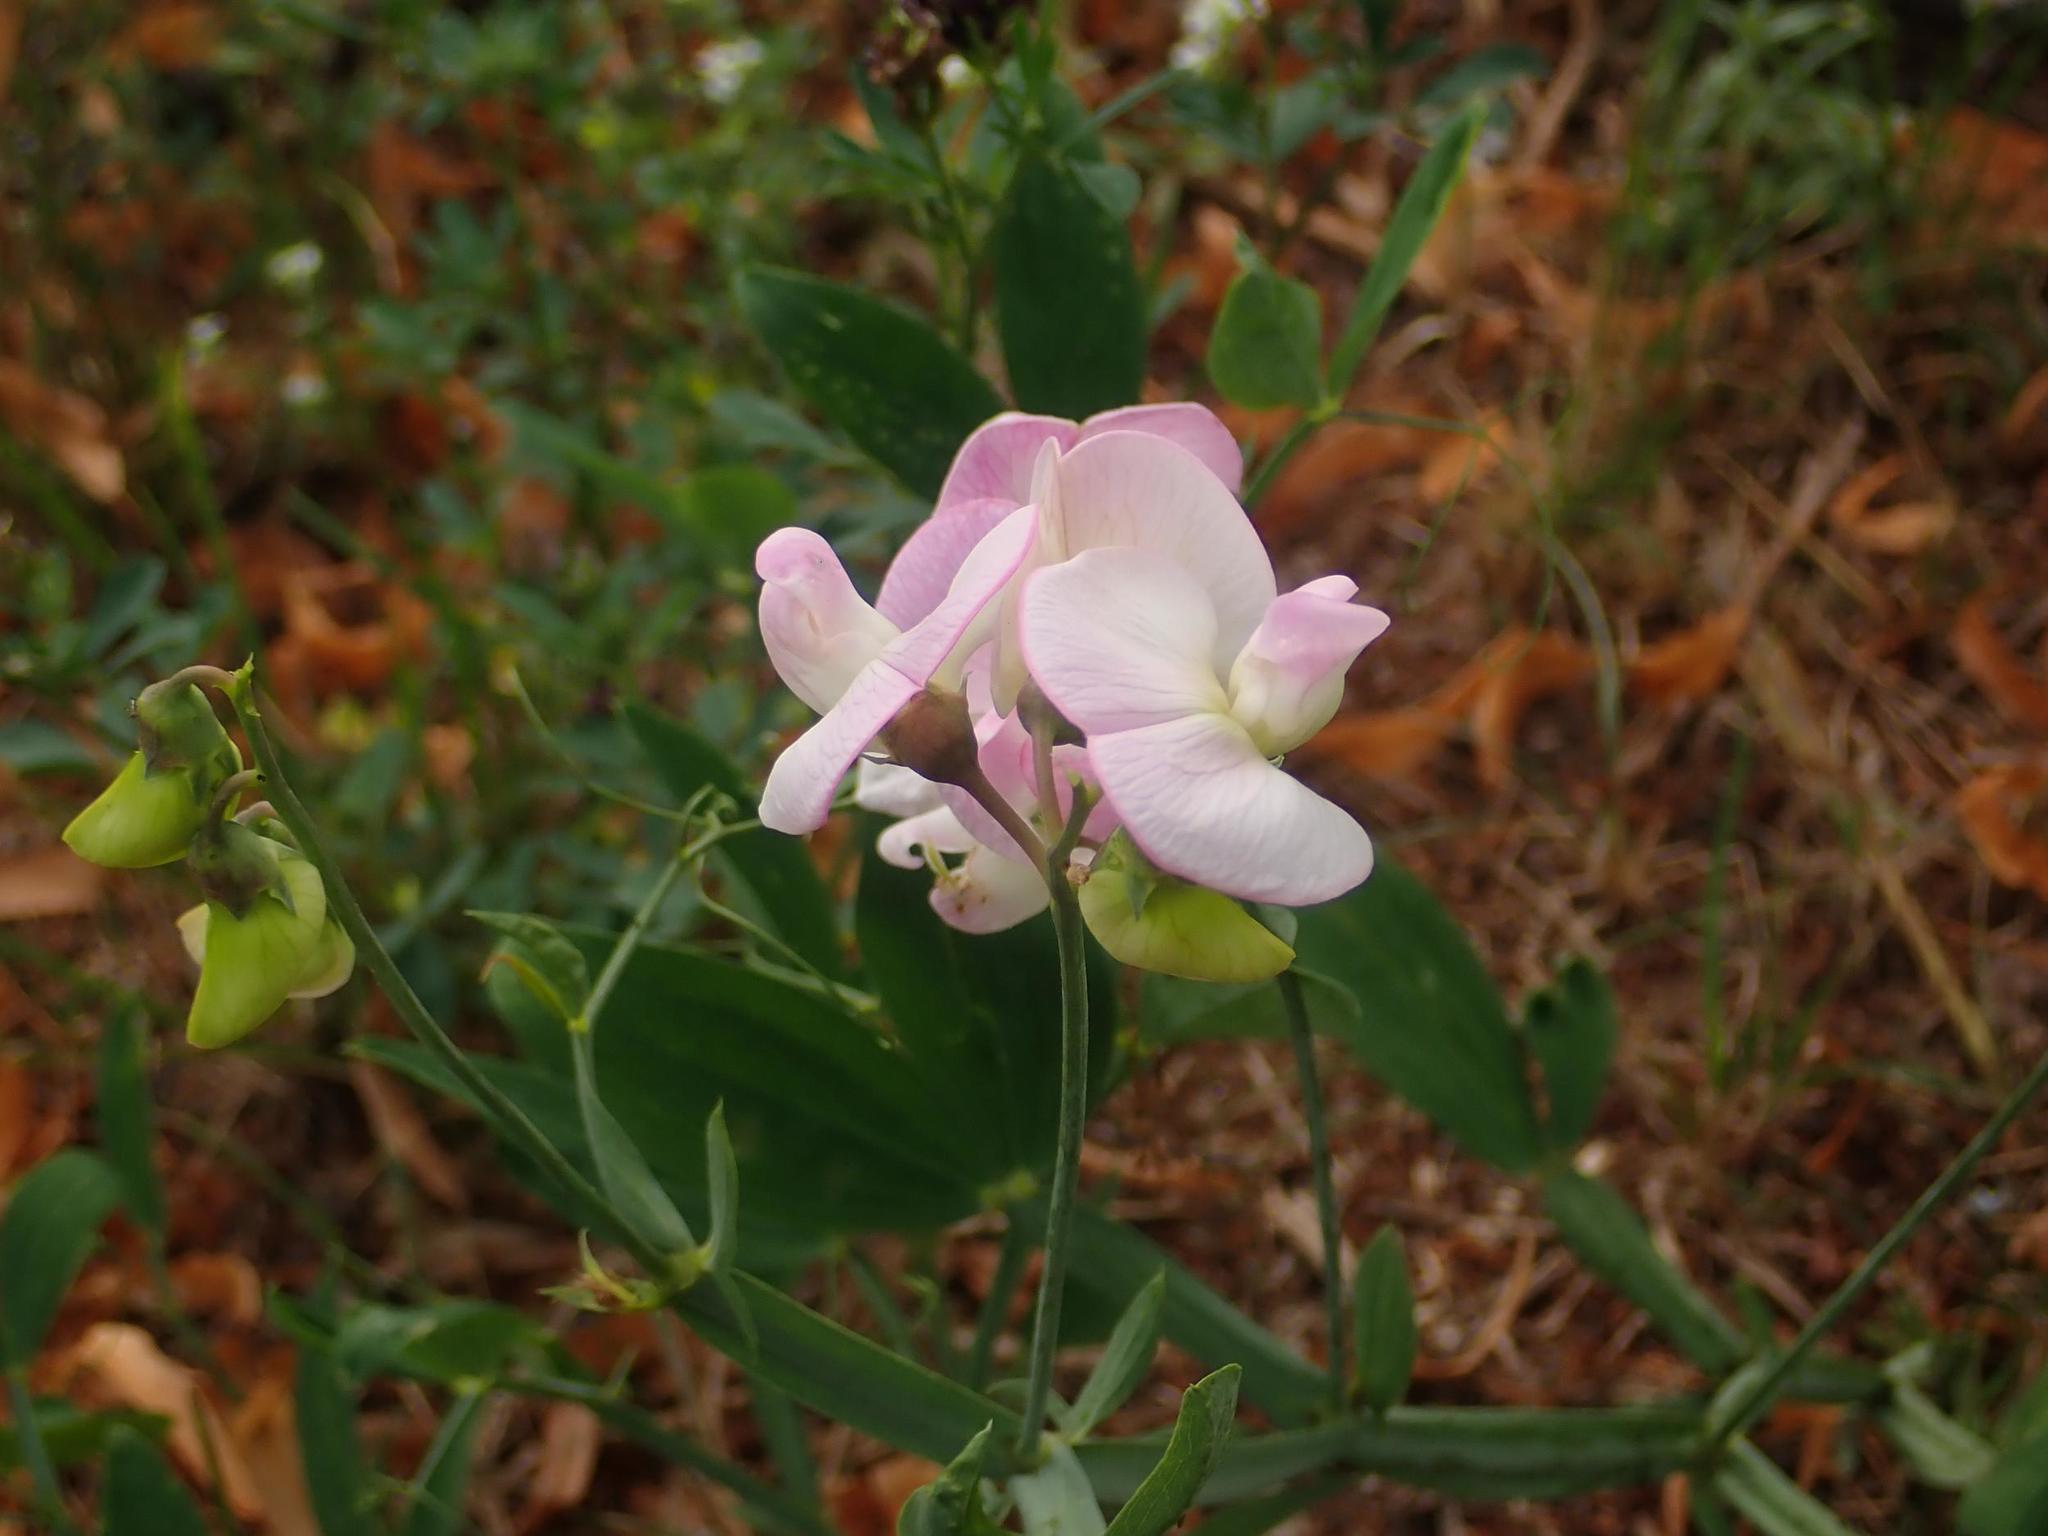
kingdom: Plantae
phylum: Tracheophyta
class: Magnoliopsida
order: Fabales
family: Fabaceae
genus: Lathyrus
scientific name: Lathyrus latifolius
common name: Perennial pea
